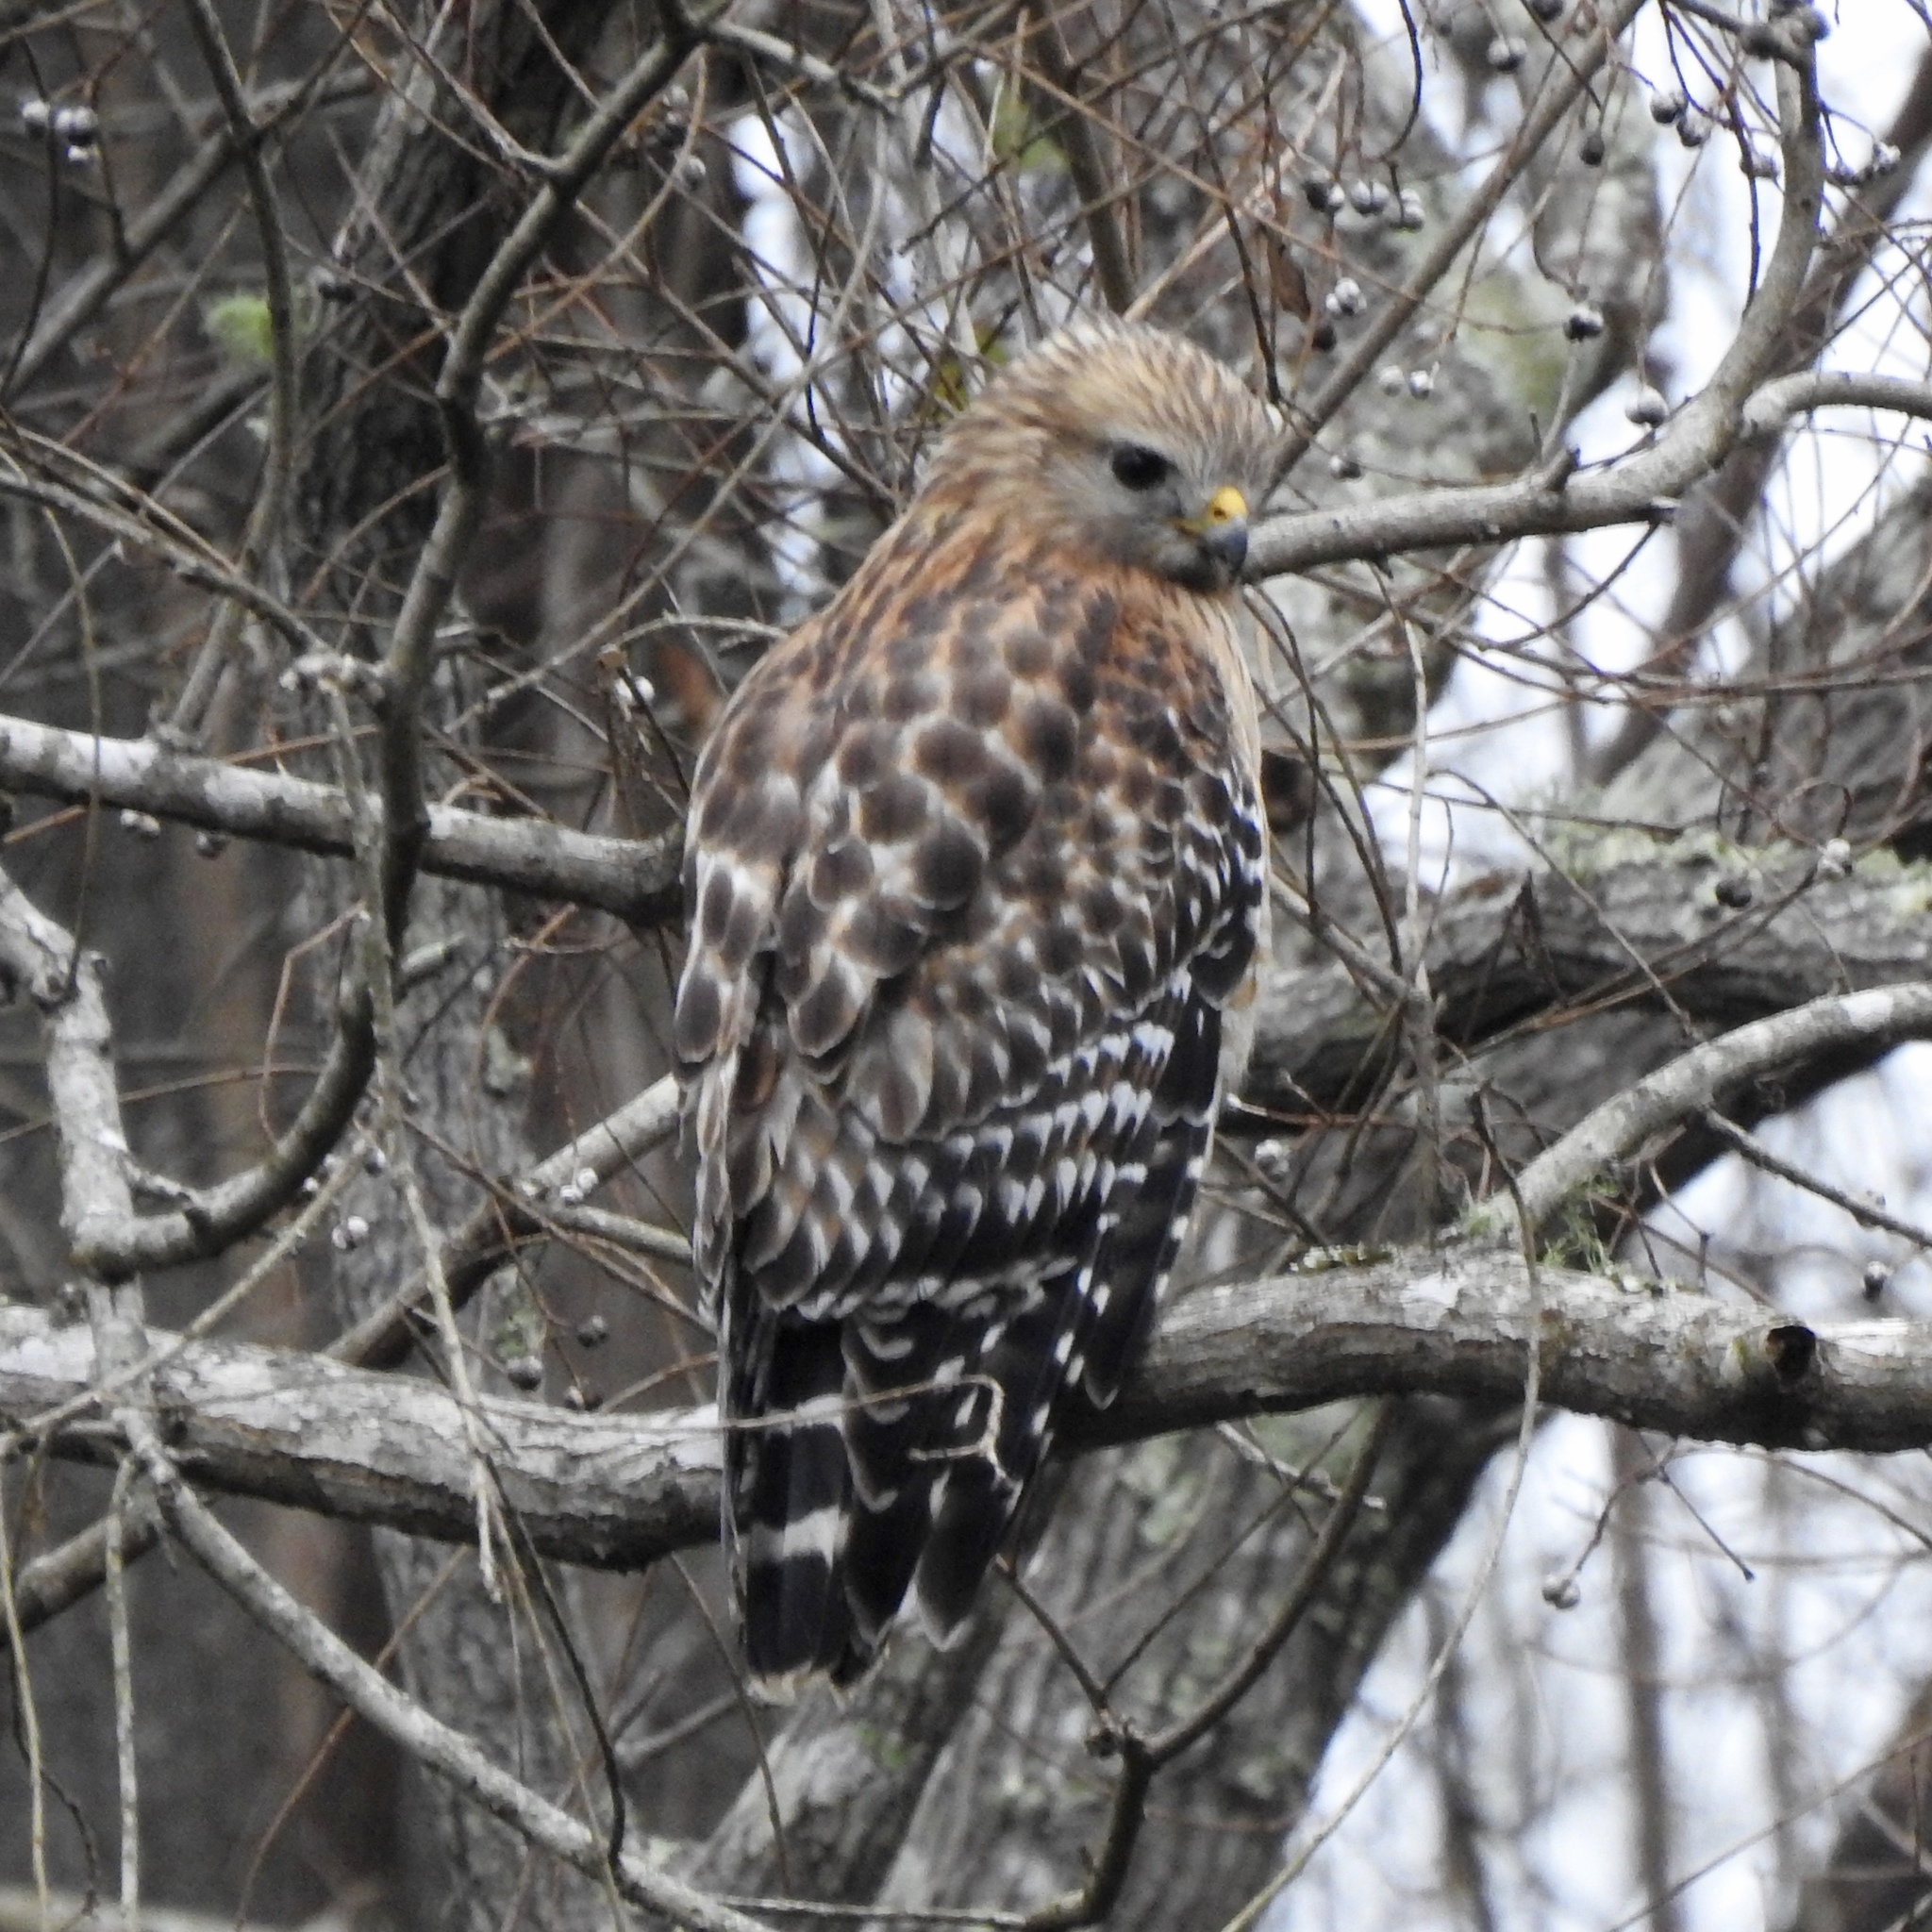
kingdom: Animalia
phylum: Chordata
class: Aves
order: Accipitriformes
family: Accipitridae
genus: Buteo
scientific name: Buteo lineatus
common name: Red-shouldered hawk
